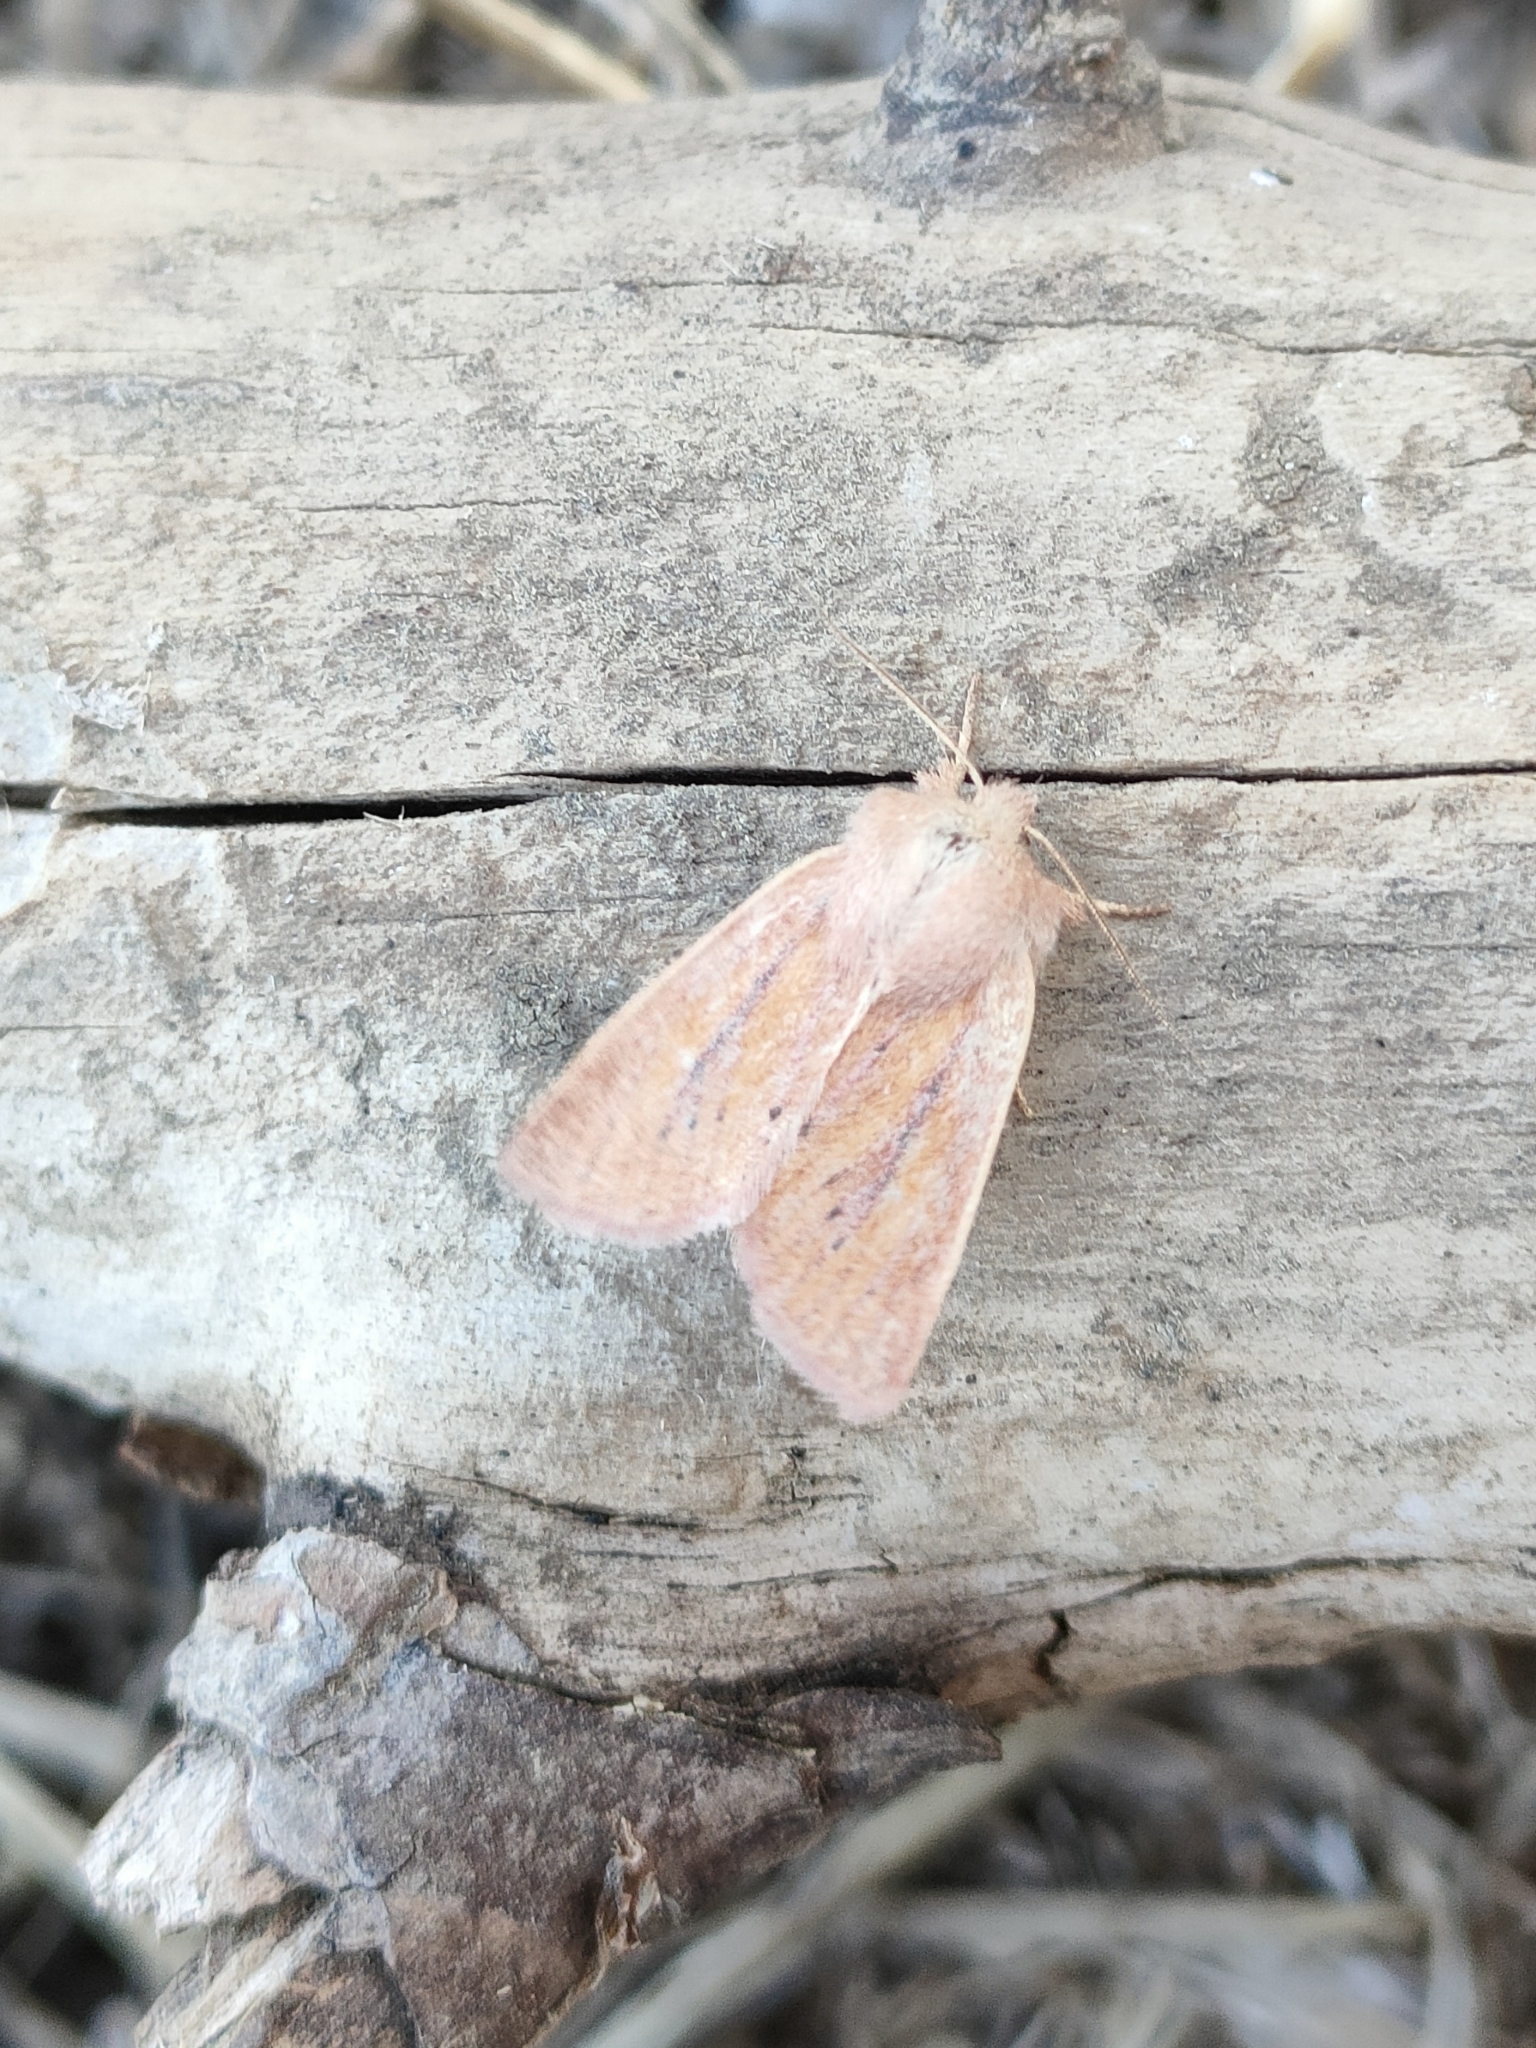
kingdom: Animalia
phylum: Arthropoda
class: Insecta
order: Lepidoptera
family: Noctuidae
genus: Denticucullus
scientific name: Denticucullus pygmina
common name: Small wainscot
